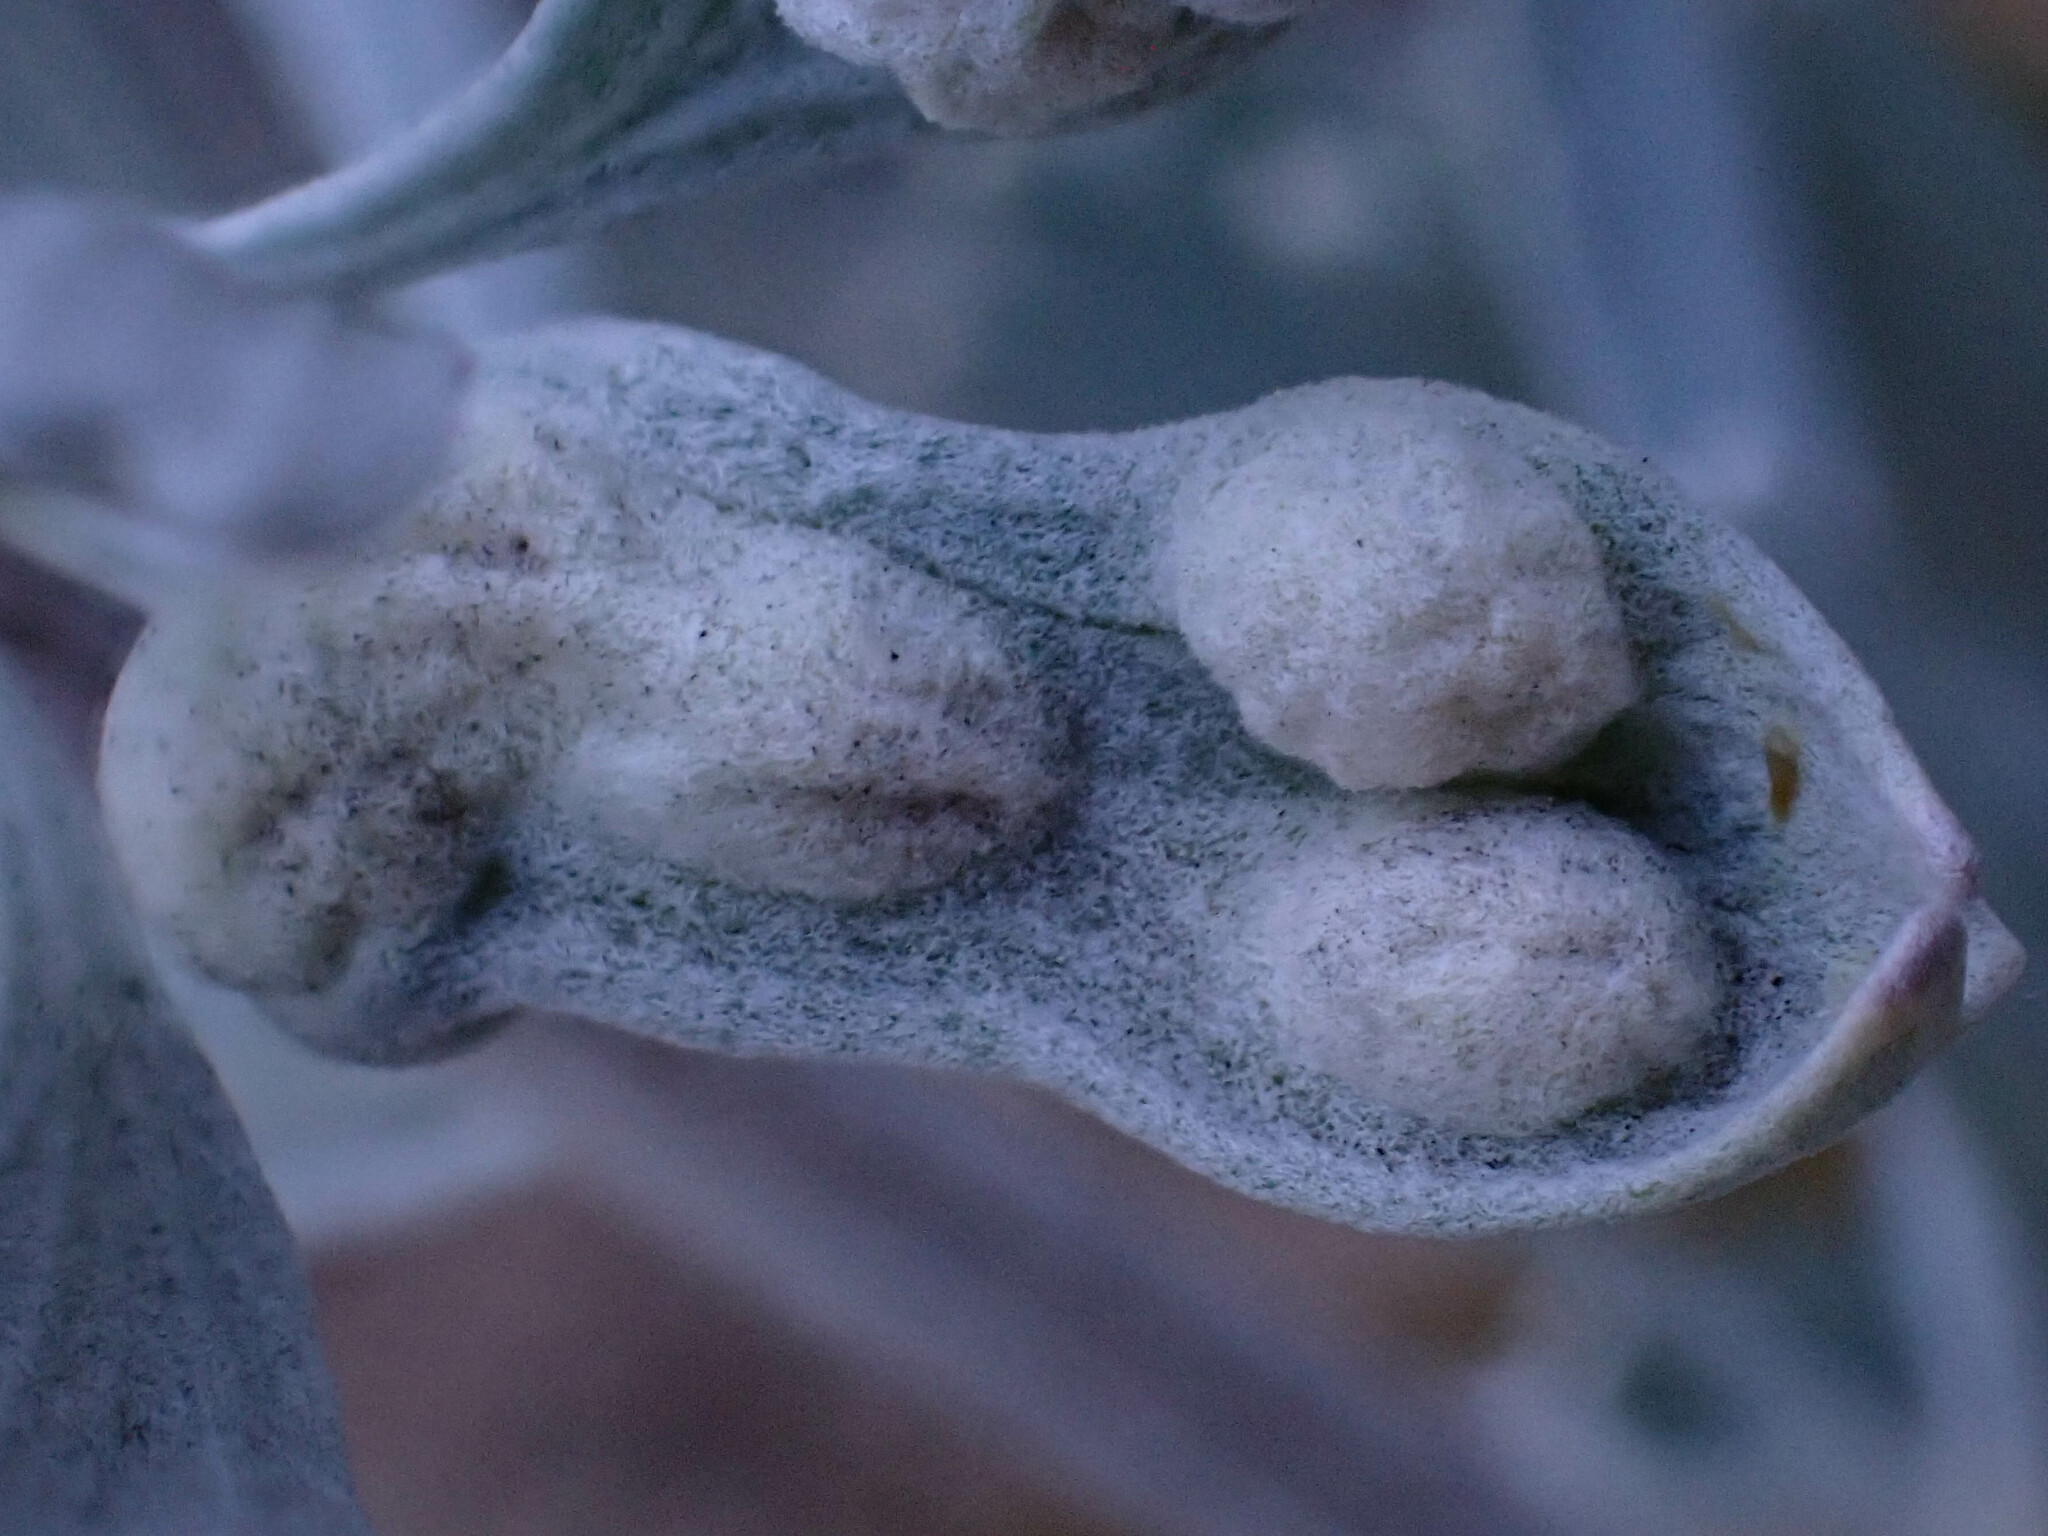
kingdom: Animalia
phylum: Arthropoda
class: Insecta
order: Diptera
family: Cecidomyiidae
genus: Rhopalomyia
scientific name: Rhopalomyia tumidibulla
